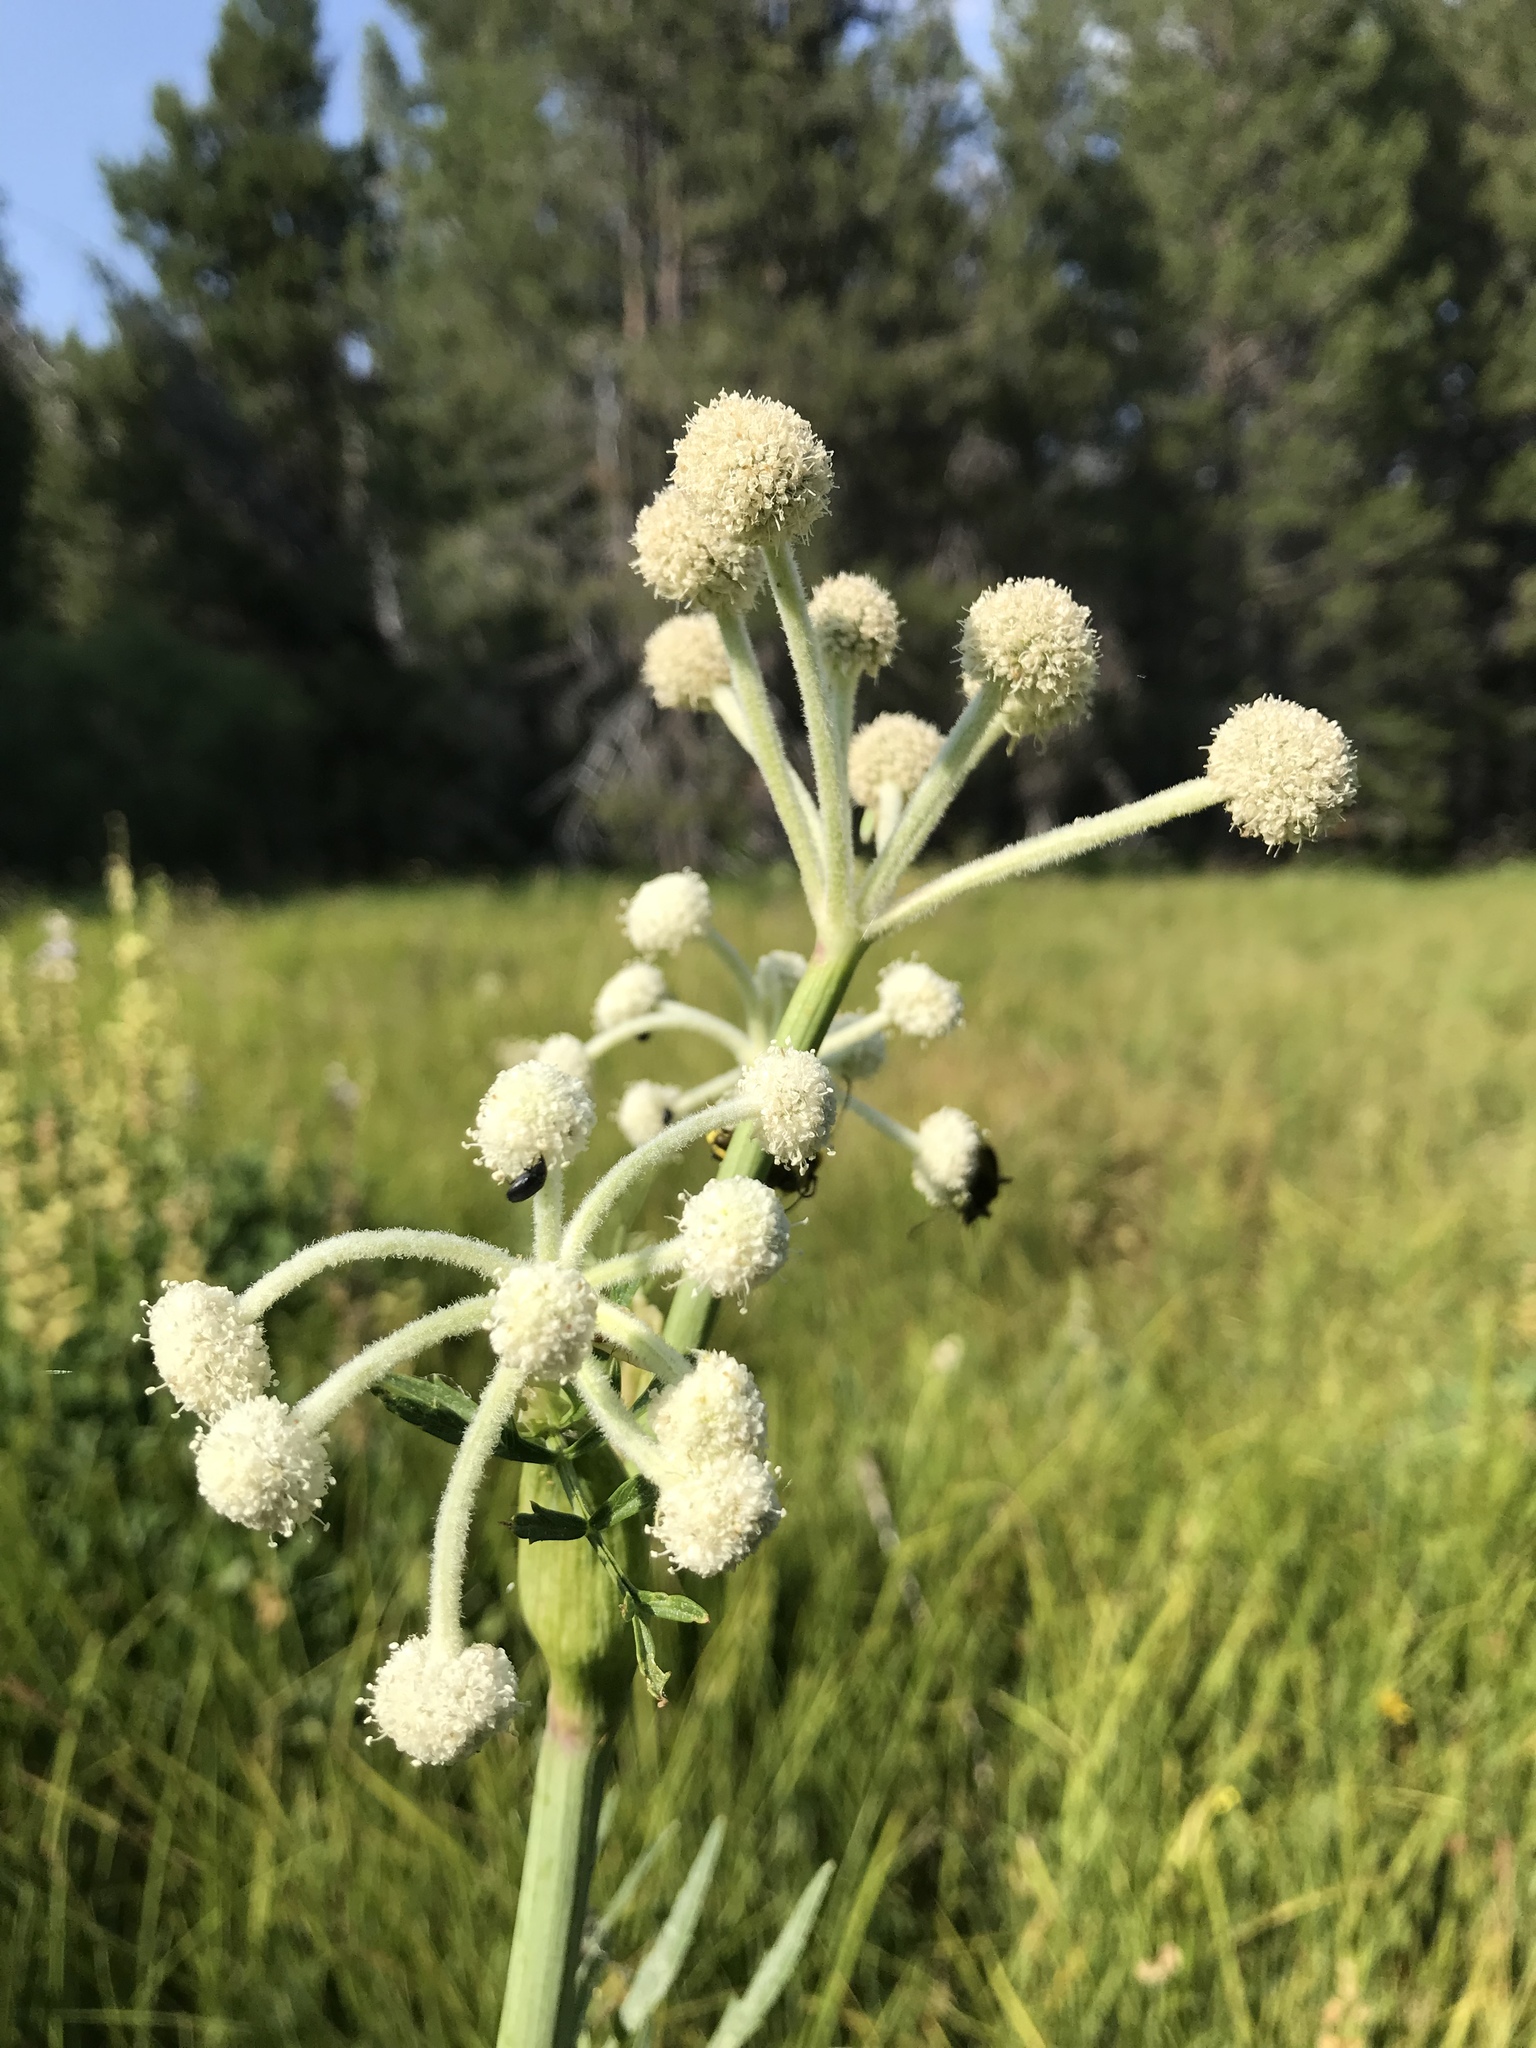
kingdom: Plantae
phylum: Tracheophyta
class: Magnoliopsida
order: Apiales
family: Apiaceae
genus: Angelica
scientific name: Angelica capitellata
